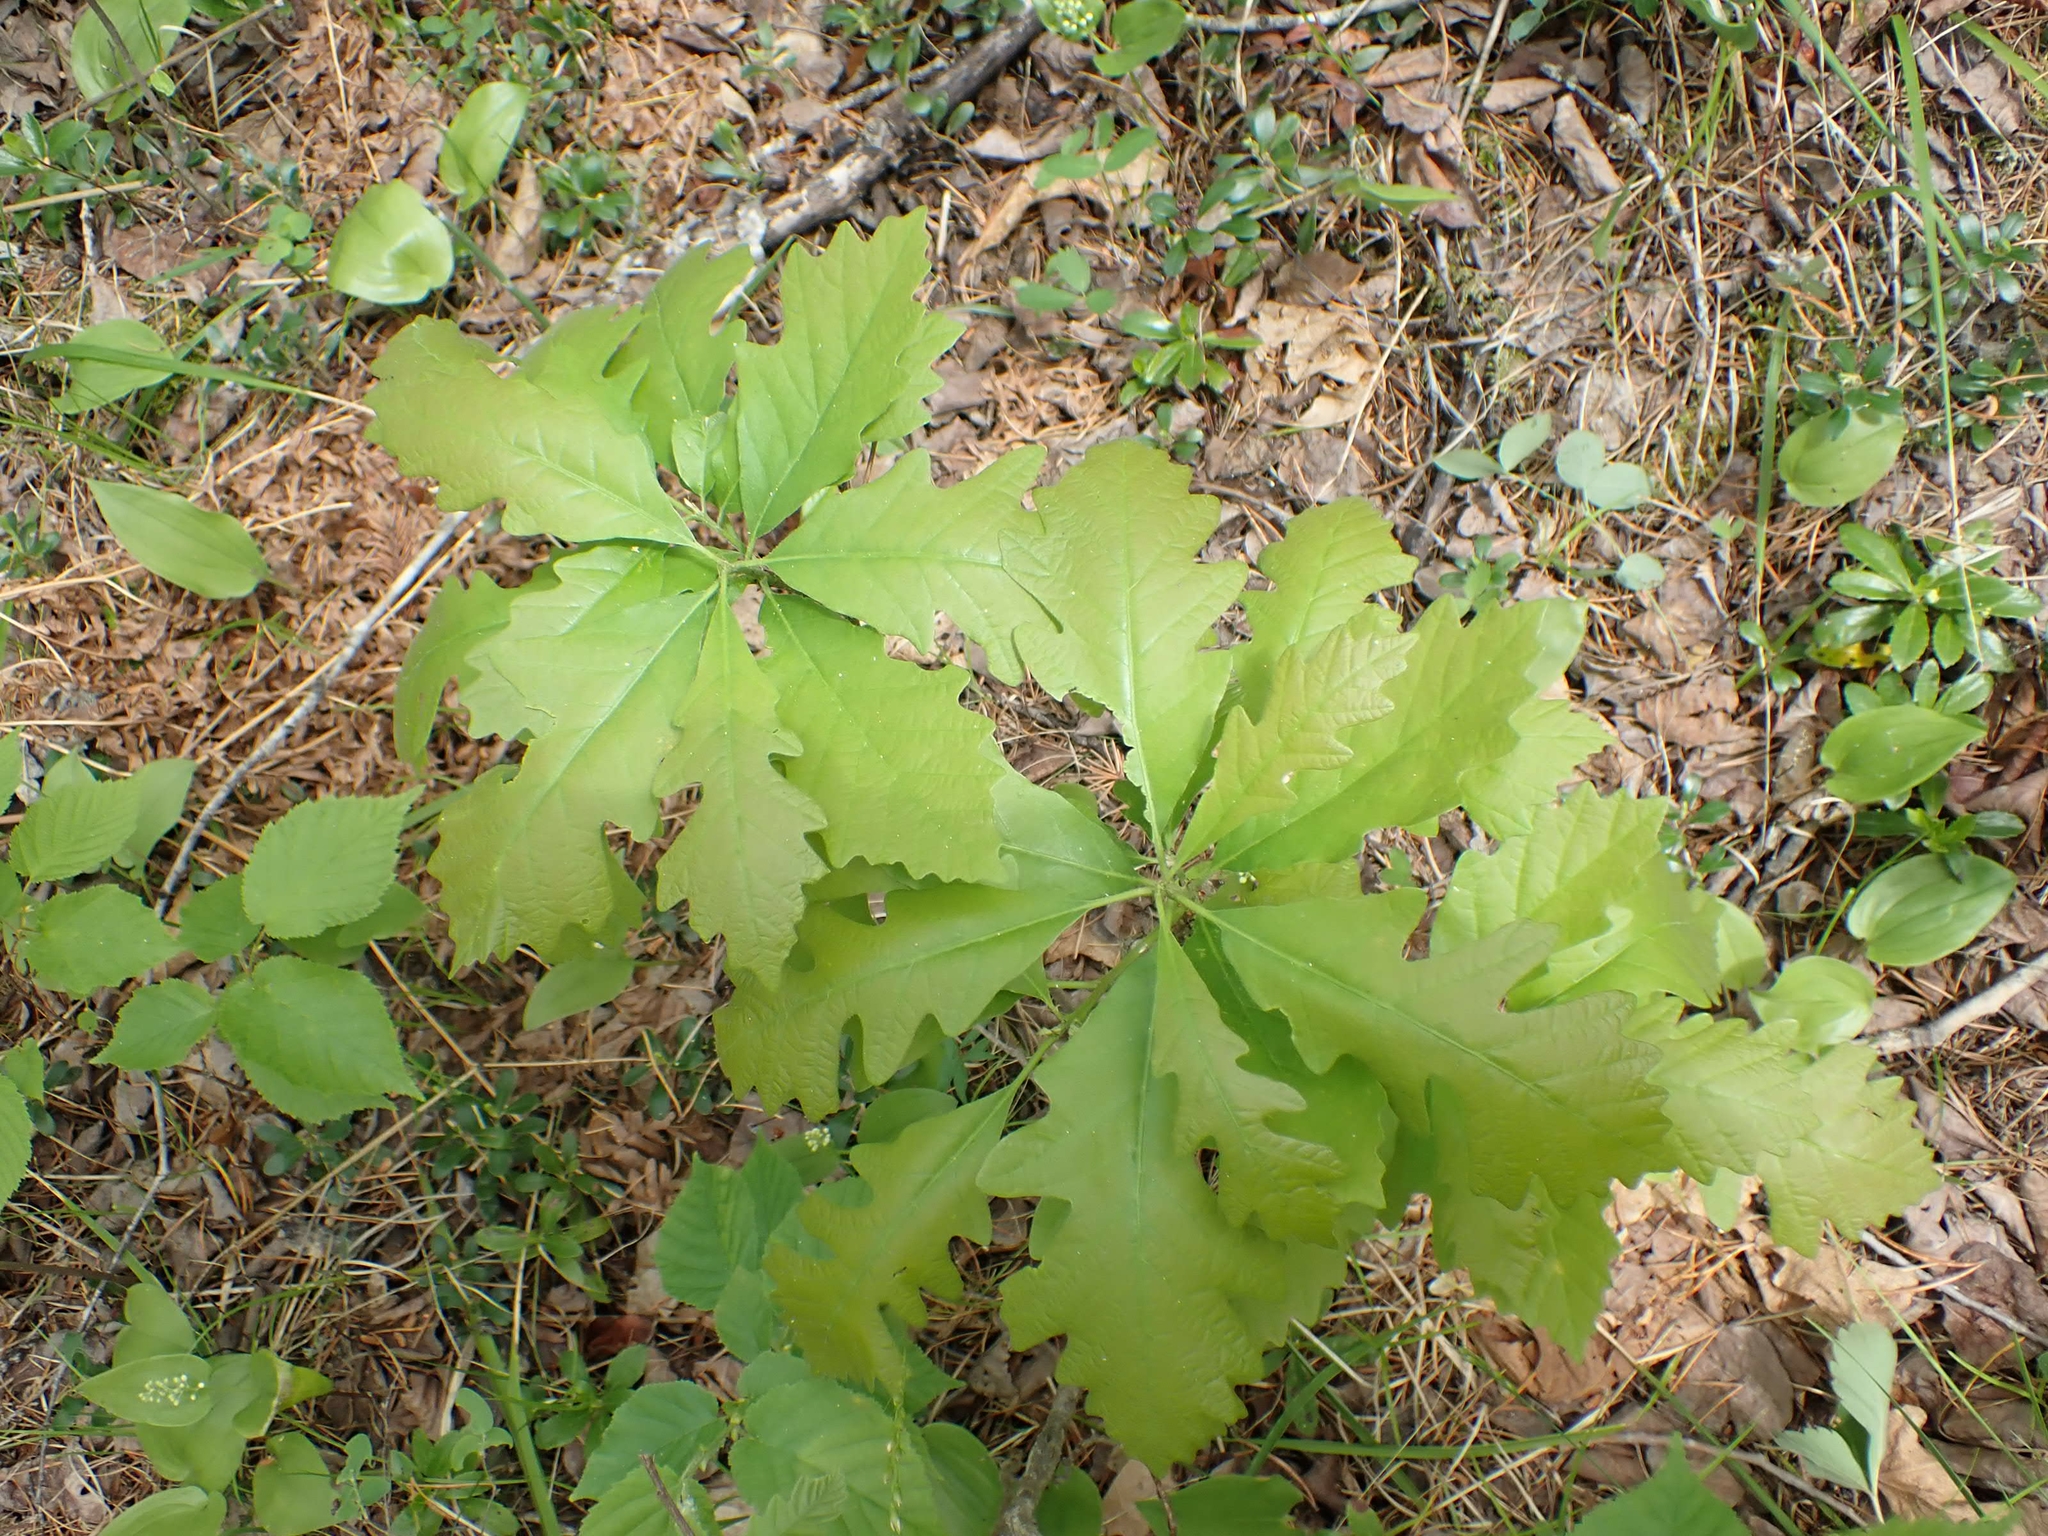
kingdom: Plantae
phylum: Tracheophyta
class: Magnoliopsida
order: Fagales
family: Fagaceae
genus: Quercus
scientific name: Quercus macrocarpa
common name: Bur oak
